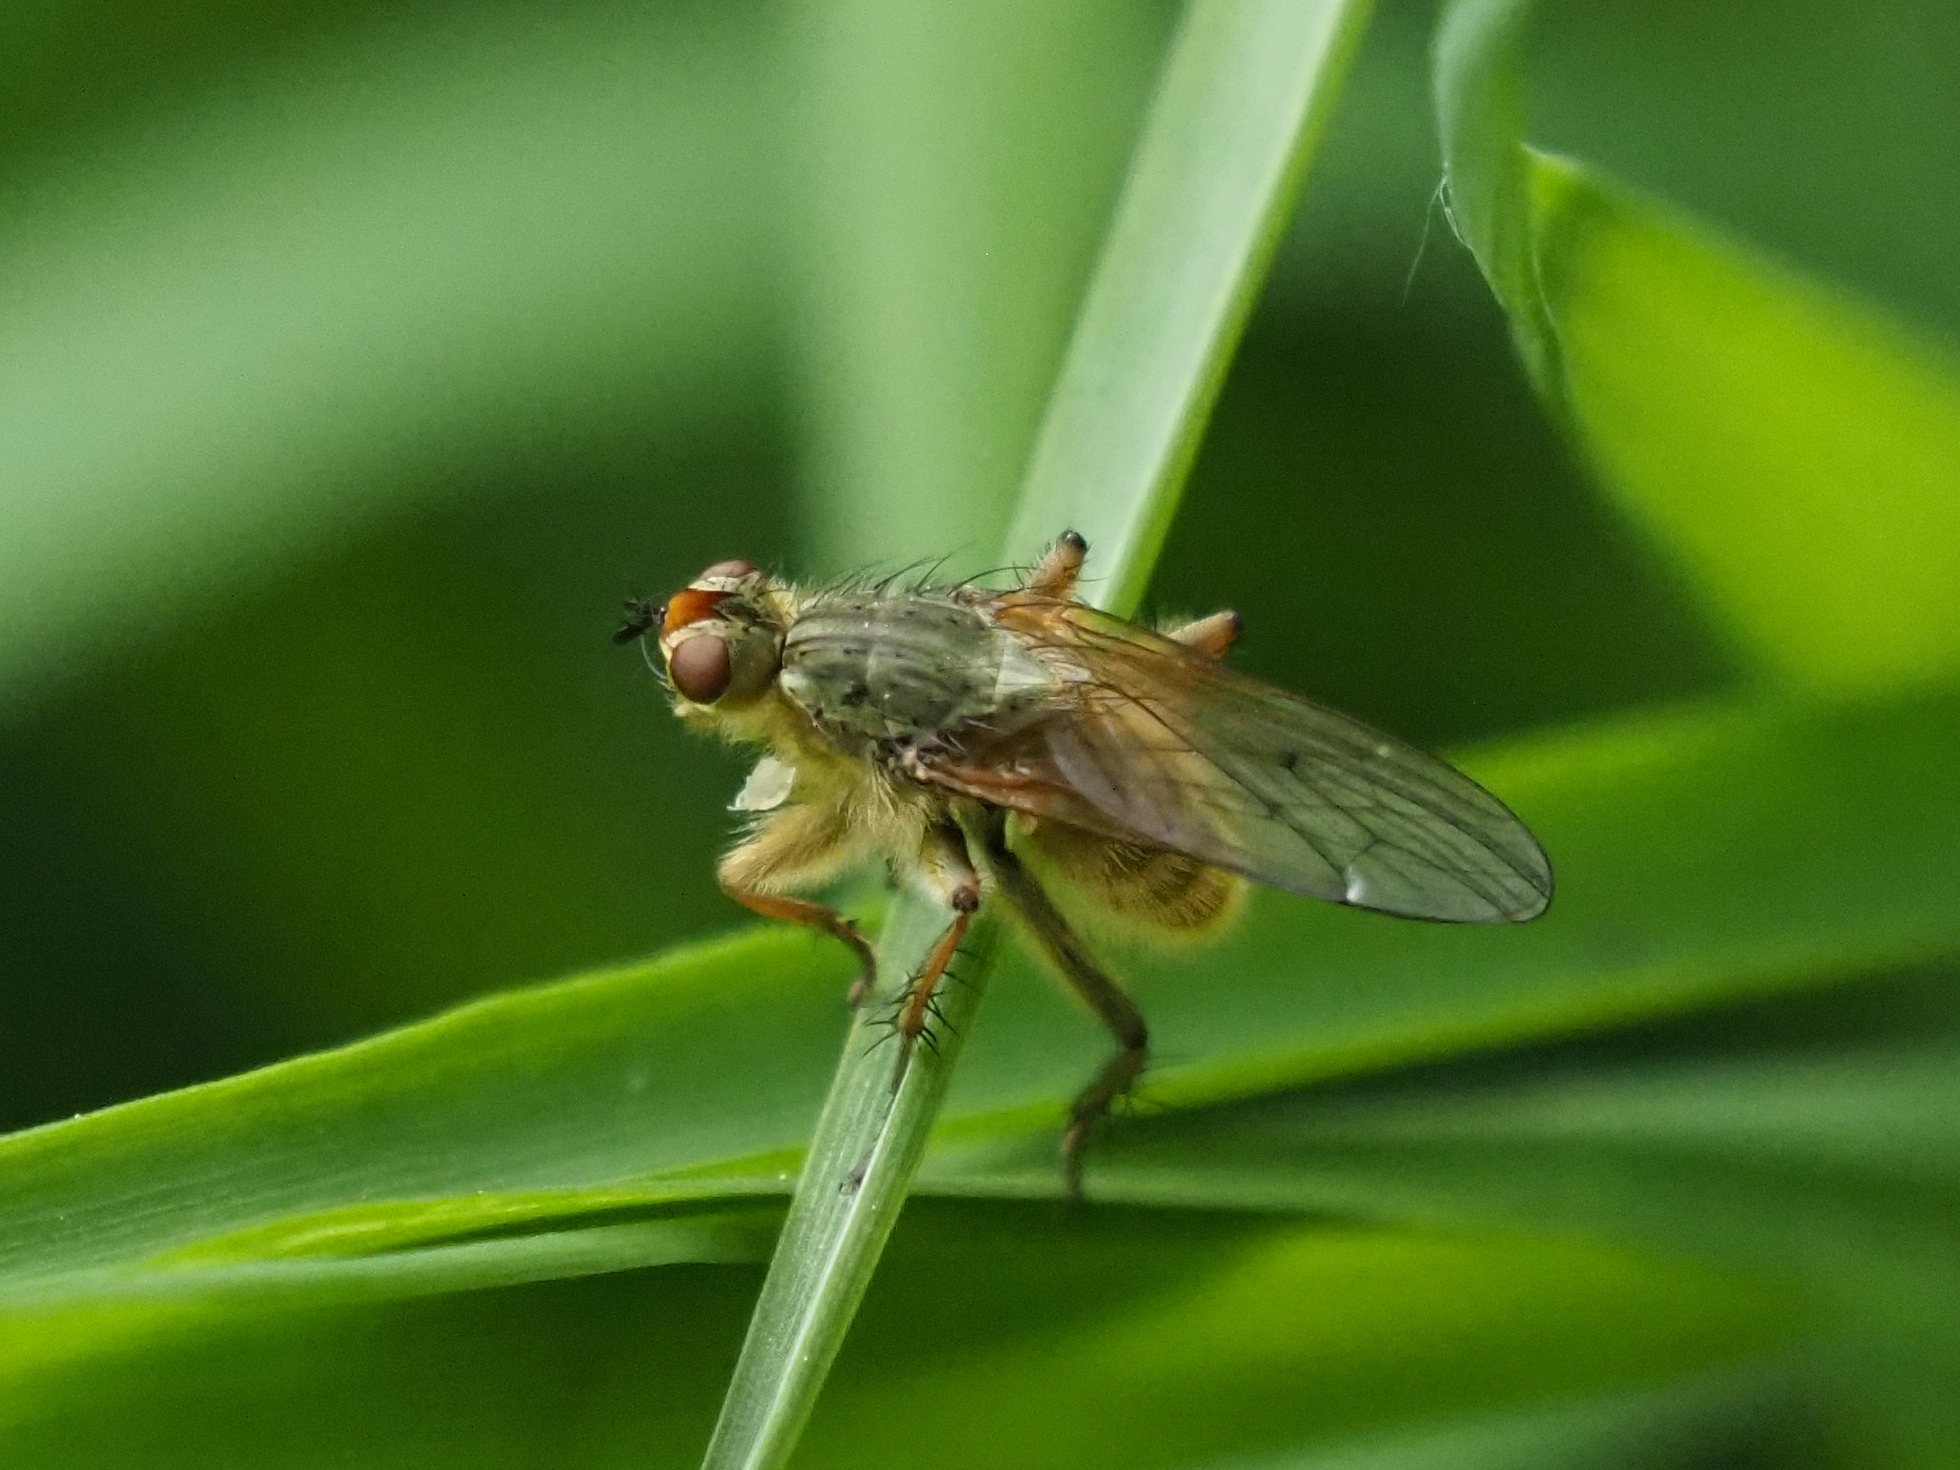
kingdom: Animalia
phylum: Arthropoda
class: Insecta
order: Diptera
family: Scathophagidae
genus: Scathophaga
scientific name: Scathophaga stercoraria
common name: Yellow dung fly
